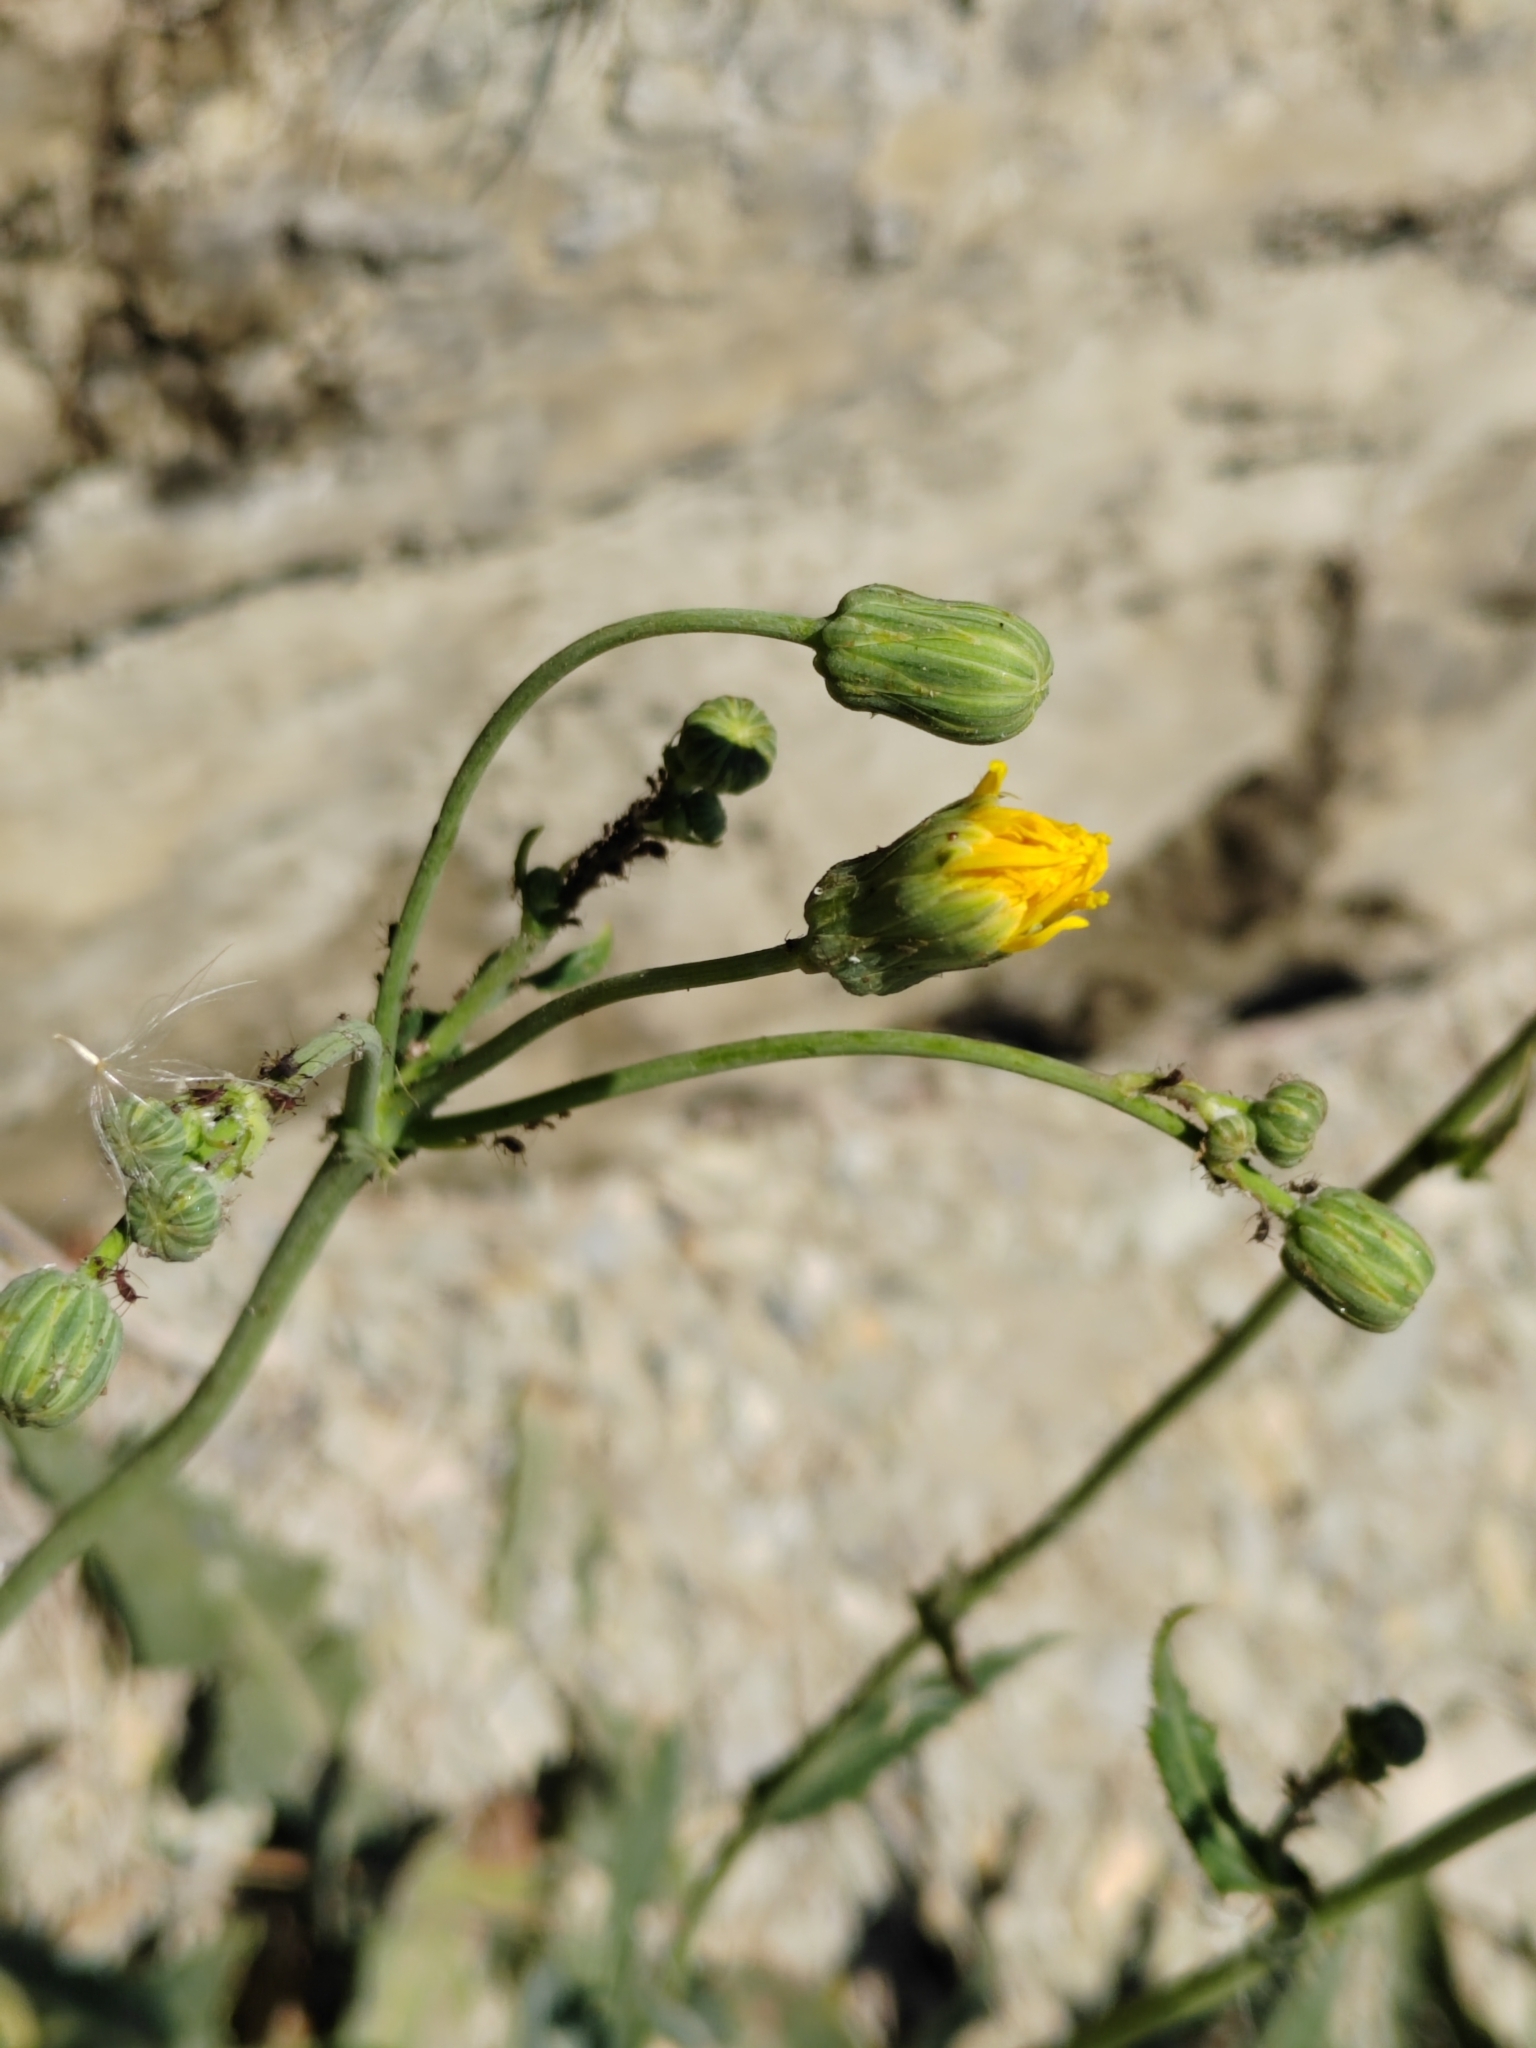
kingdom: Plantae
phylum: Tracheophyta
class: Magnoliopsida
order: Asterales
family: Asteraceae
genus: Sonchus
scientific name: Sonchus arvensis
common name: Perennial sow-thistle
